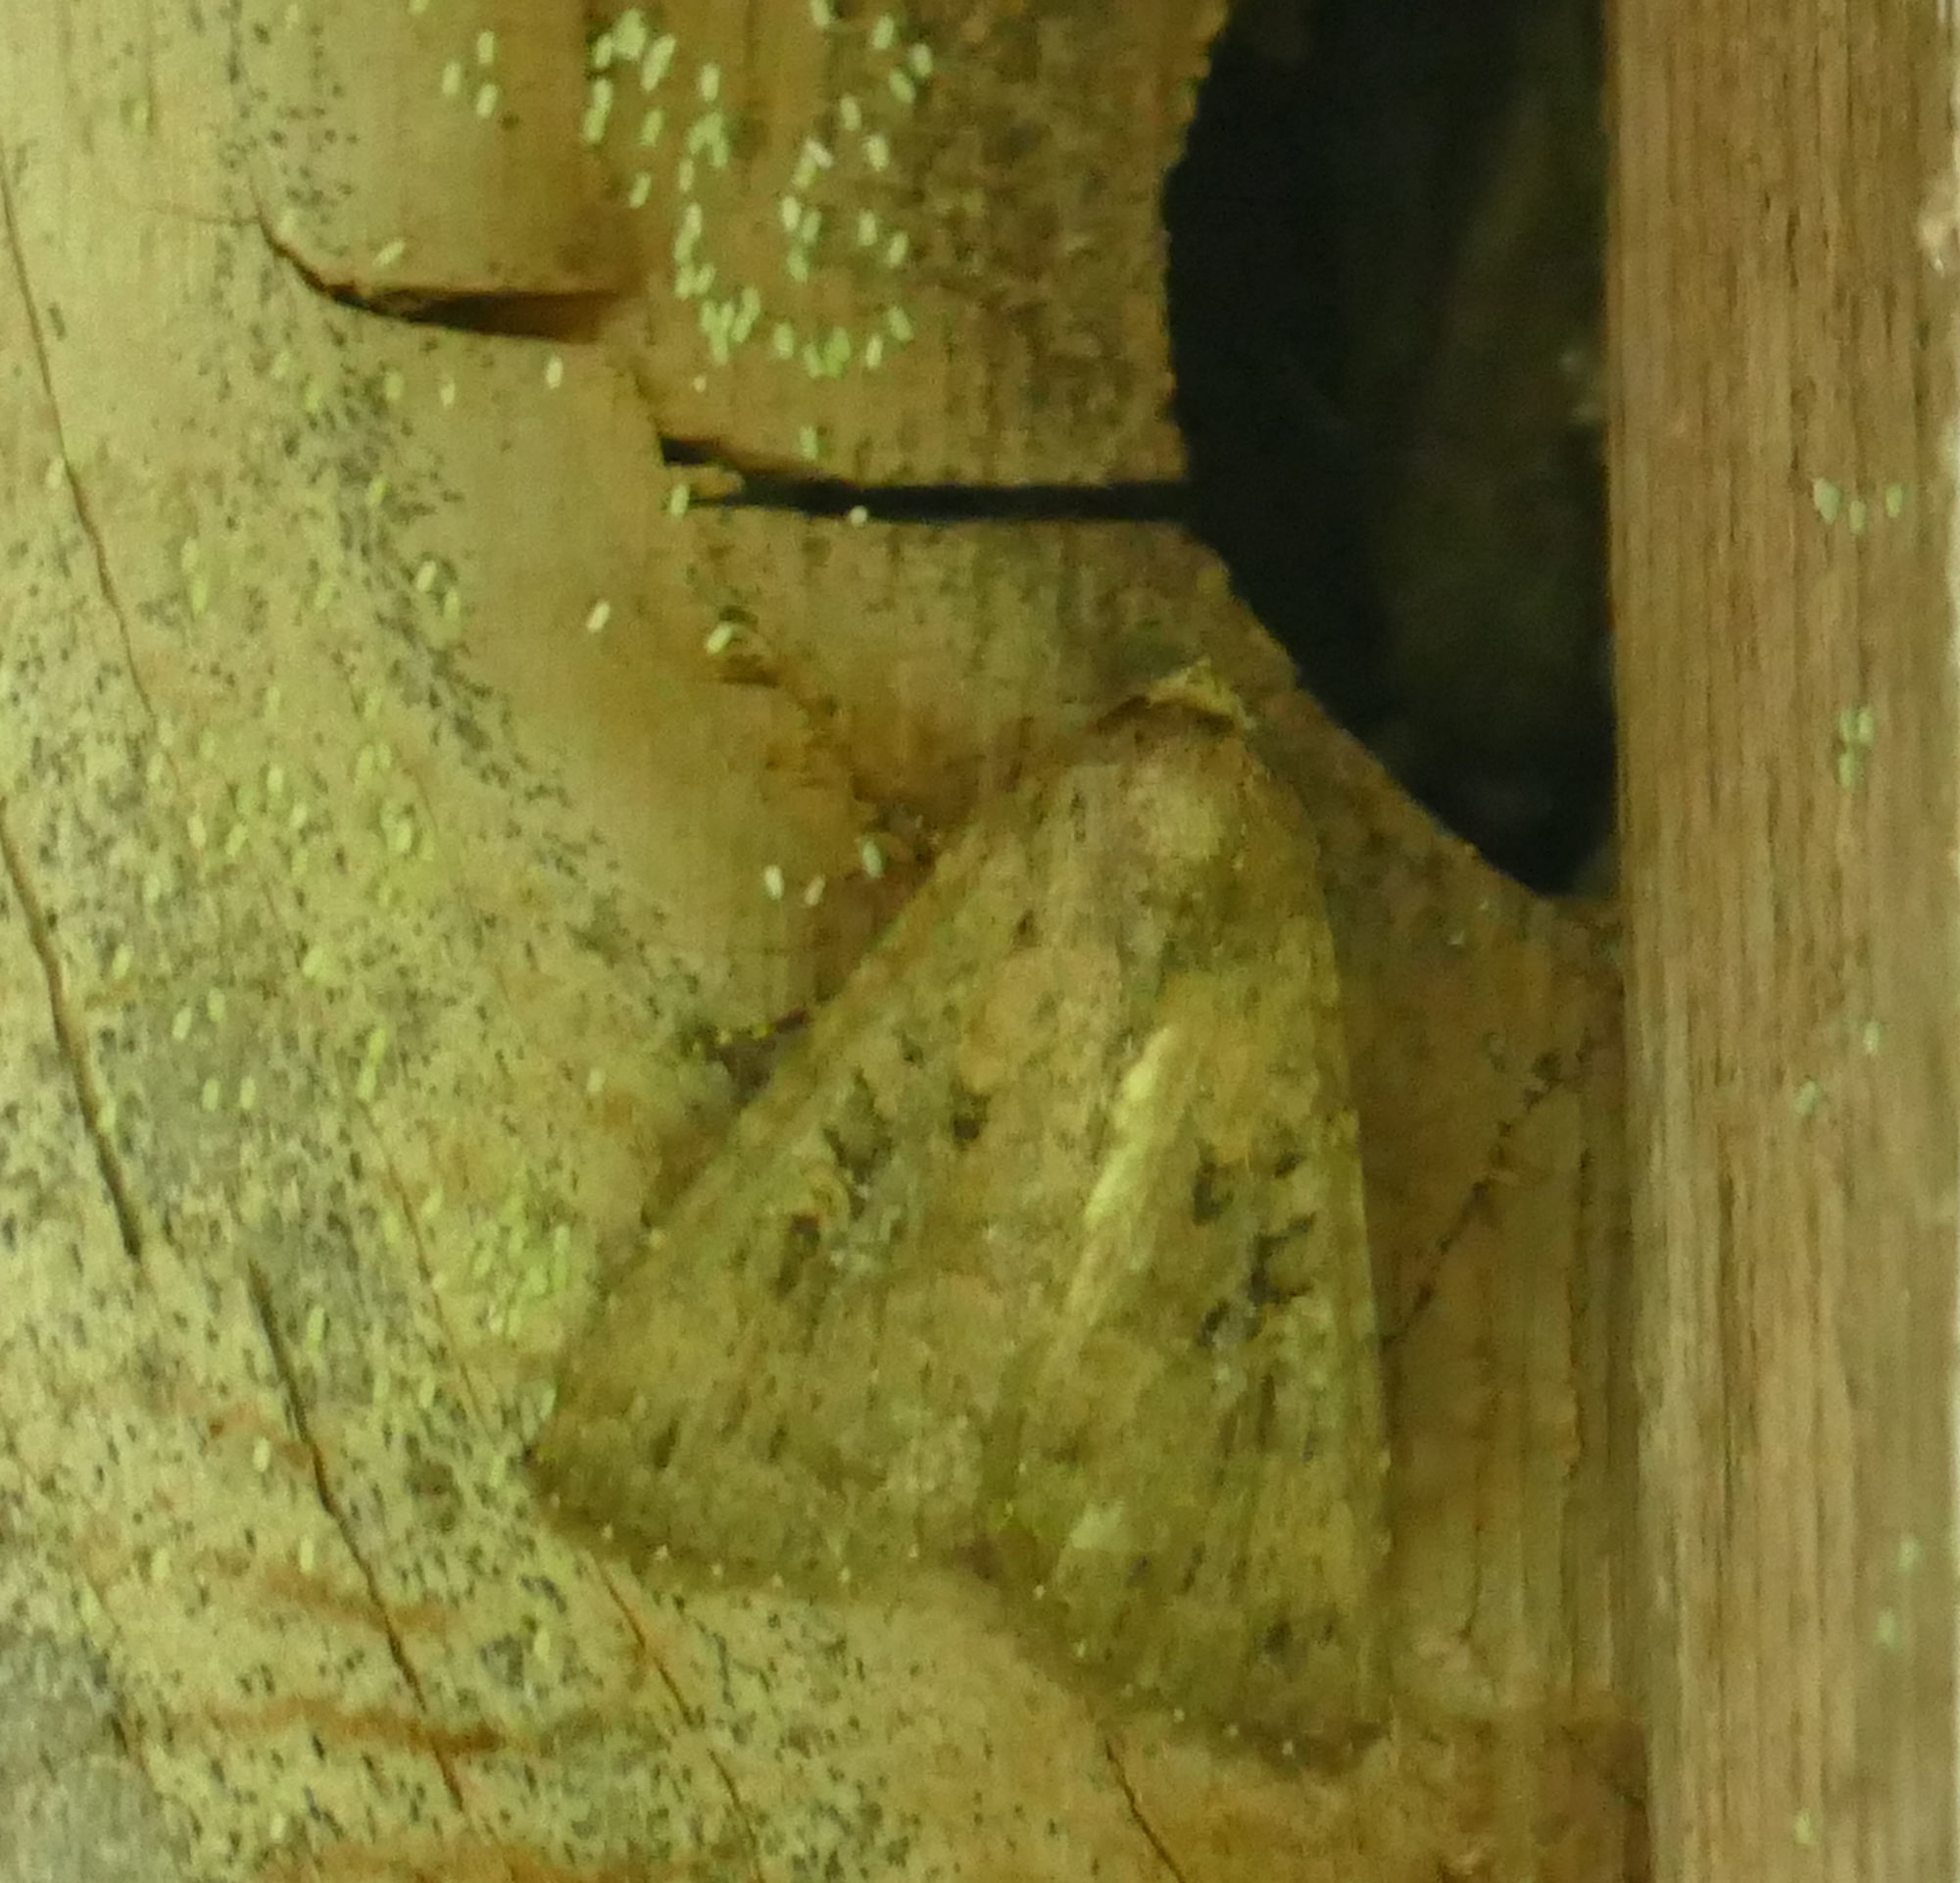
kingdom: Animalia
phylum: Arthropoda
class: Insecta
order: Lepidoptera
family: Noctuidae
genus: Condica
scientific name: Condica sutor
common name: Cobbler moth
